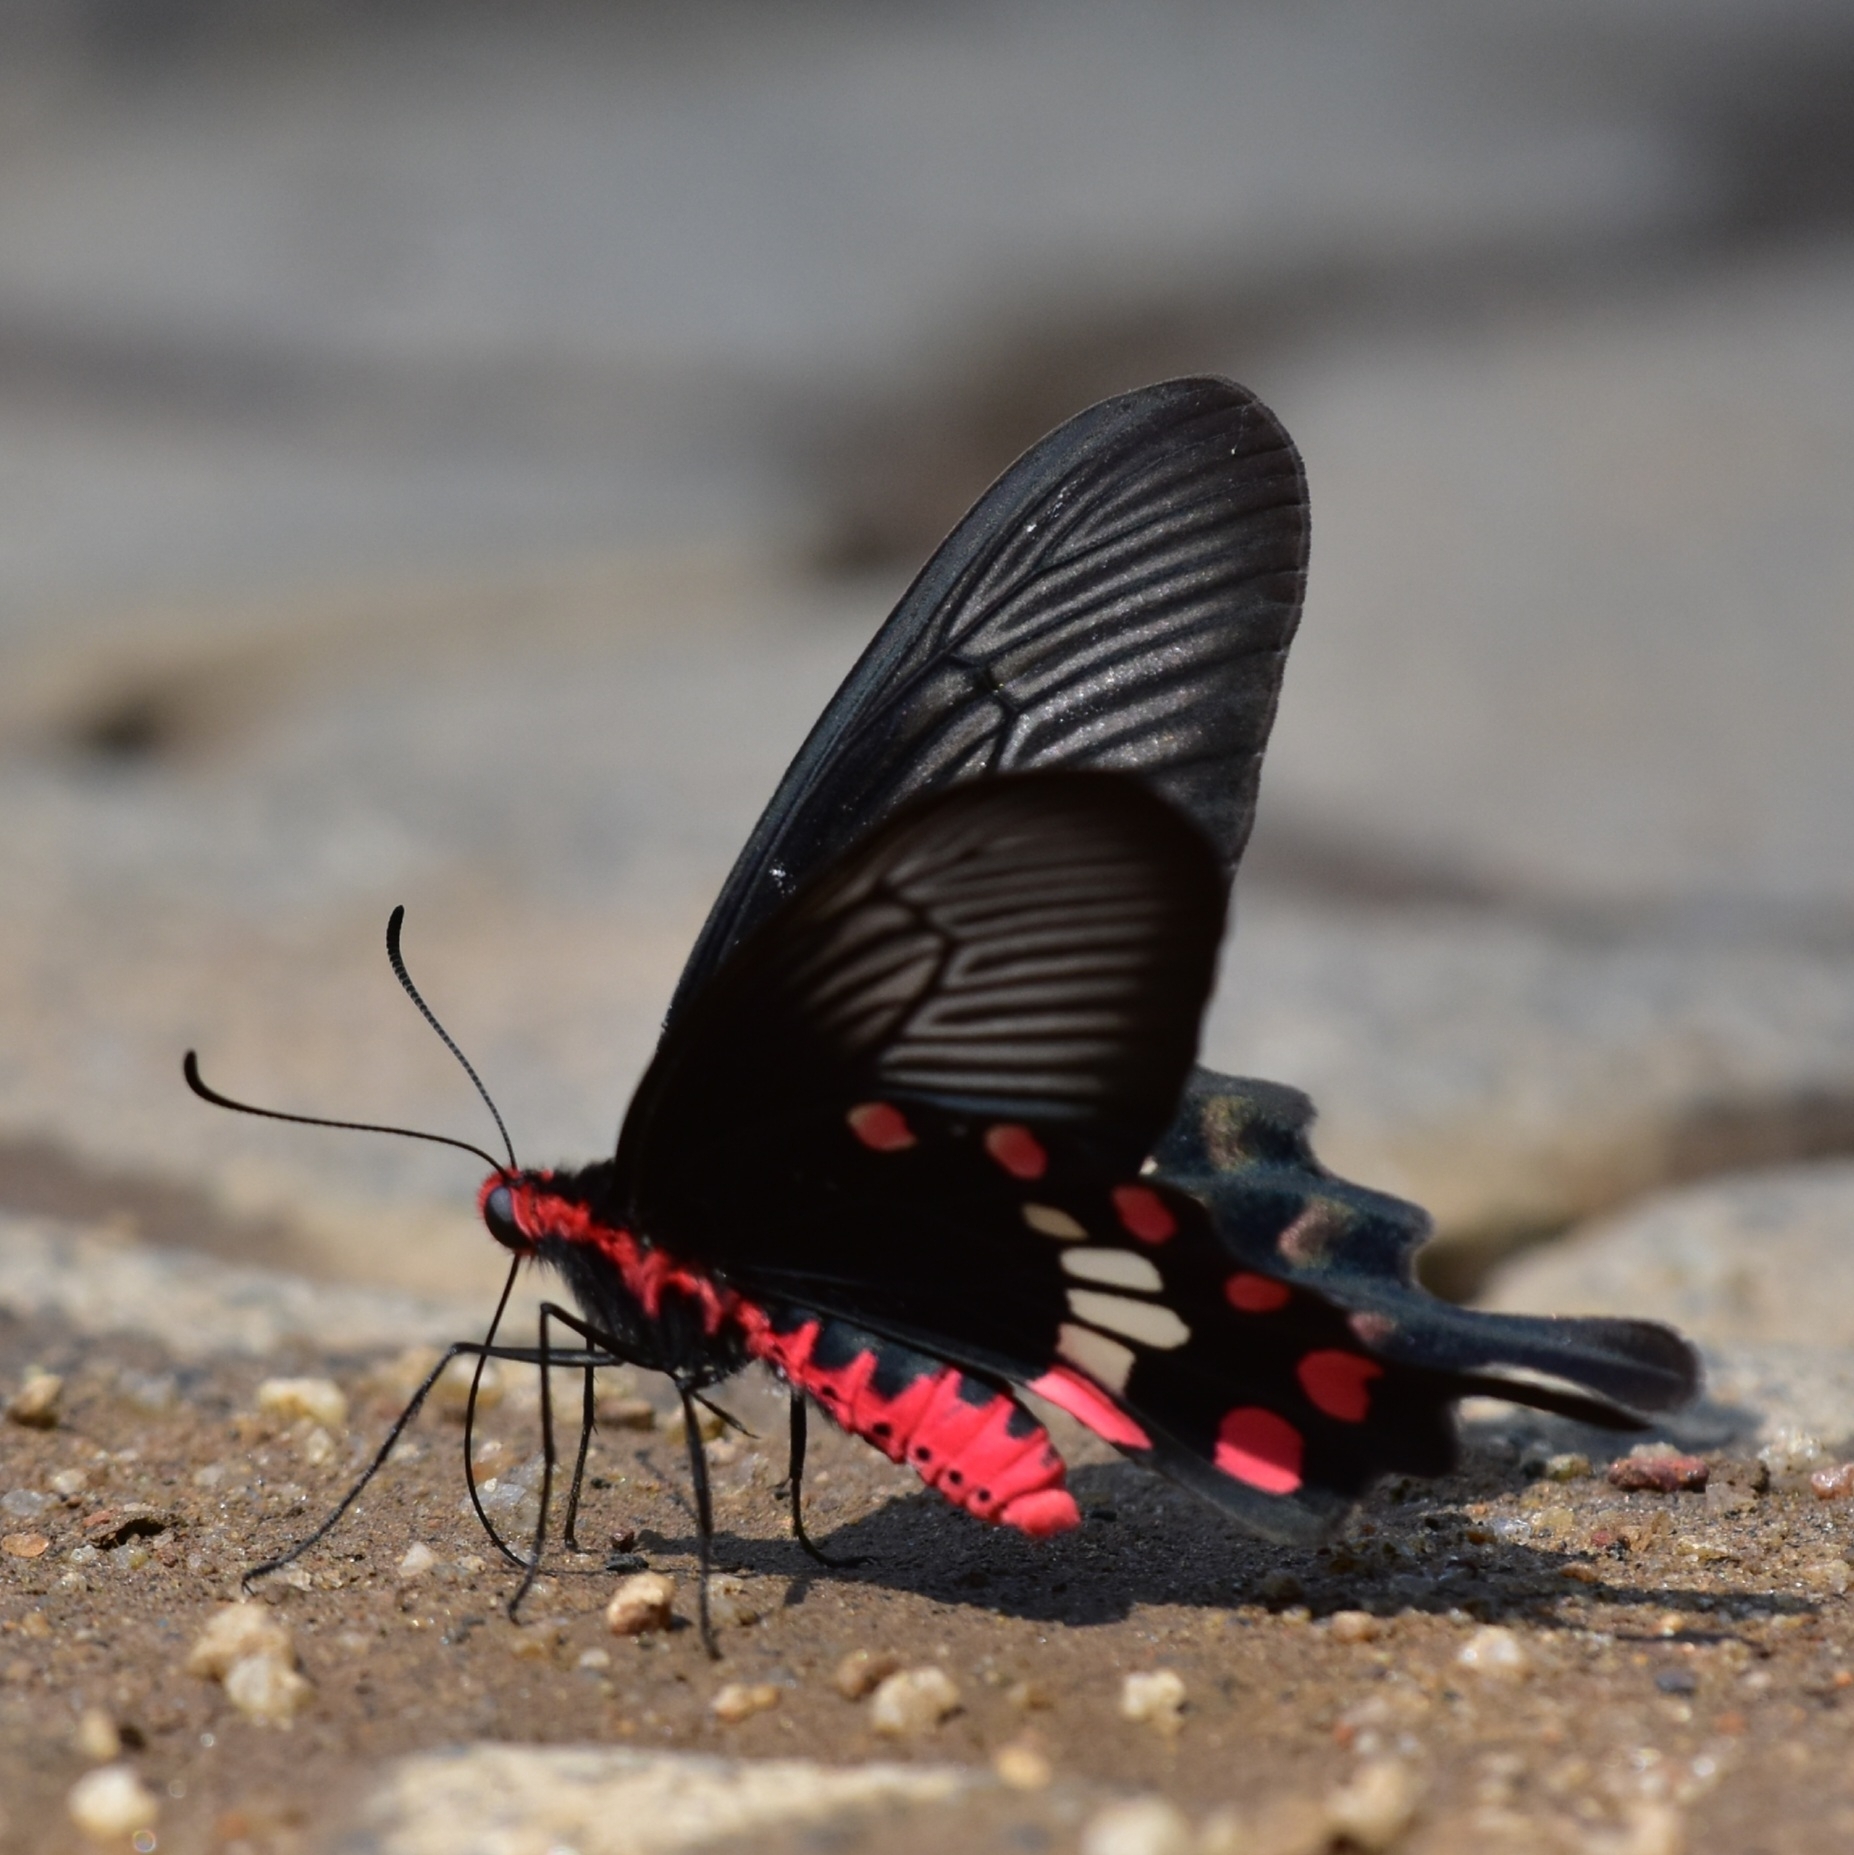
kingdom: Animalia
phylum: Arthropoda
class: Insecta
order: Lepidoptera
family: Papilionidae
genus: Pachliopta
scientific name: Pachliopta aristolochiae
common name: Common rose
